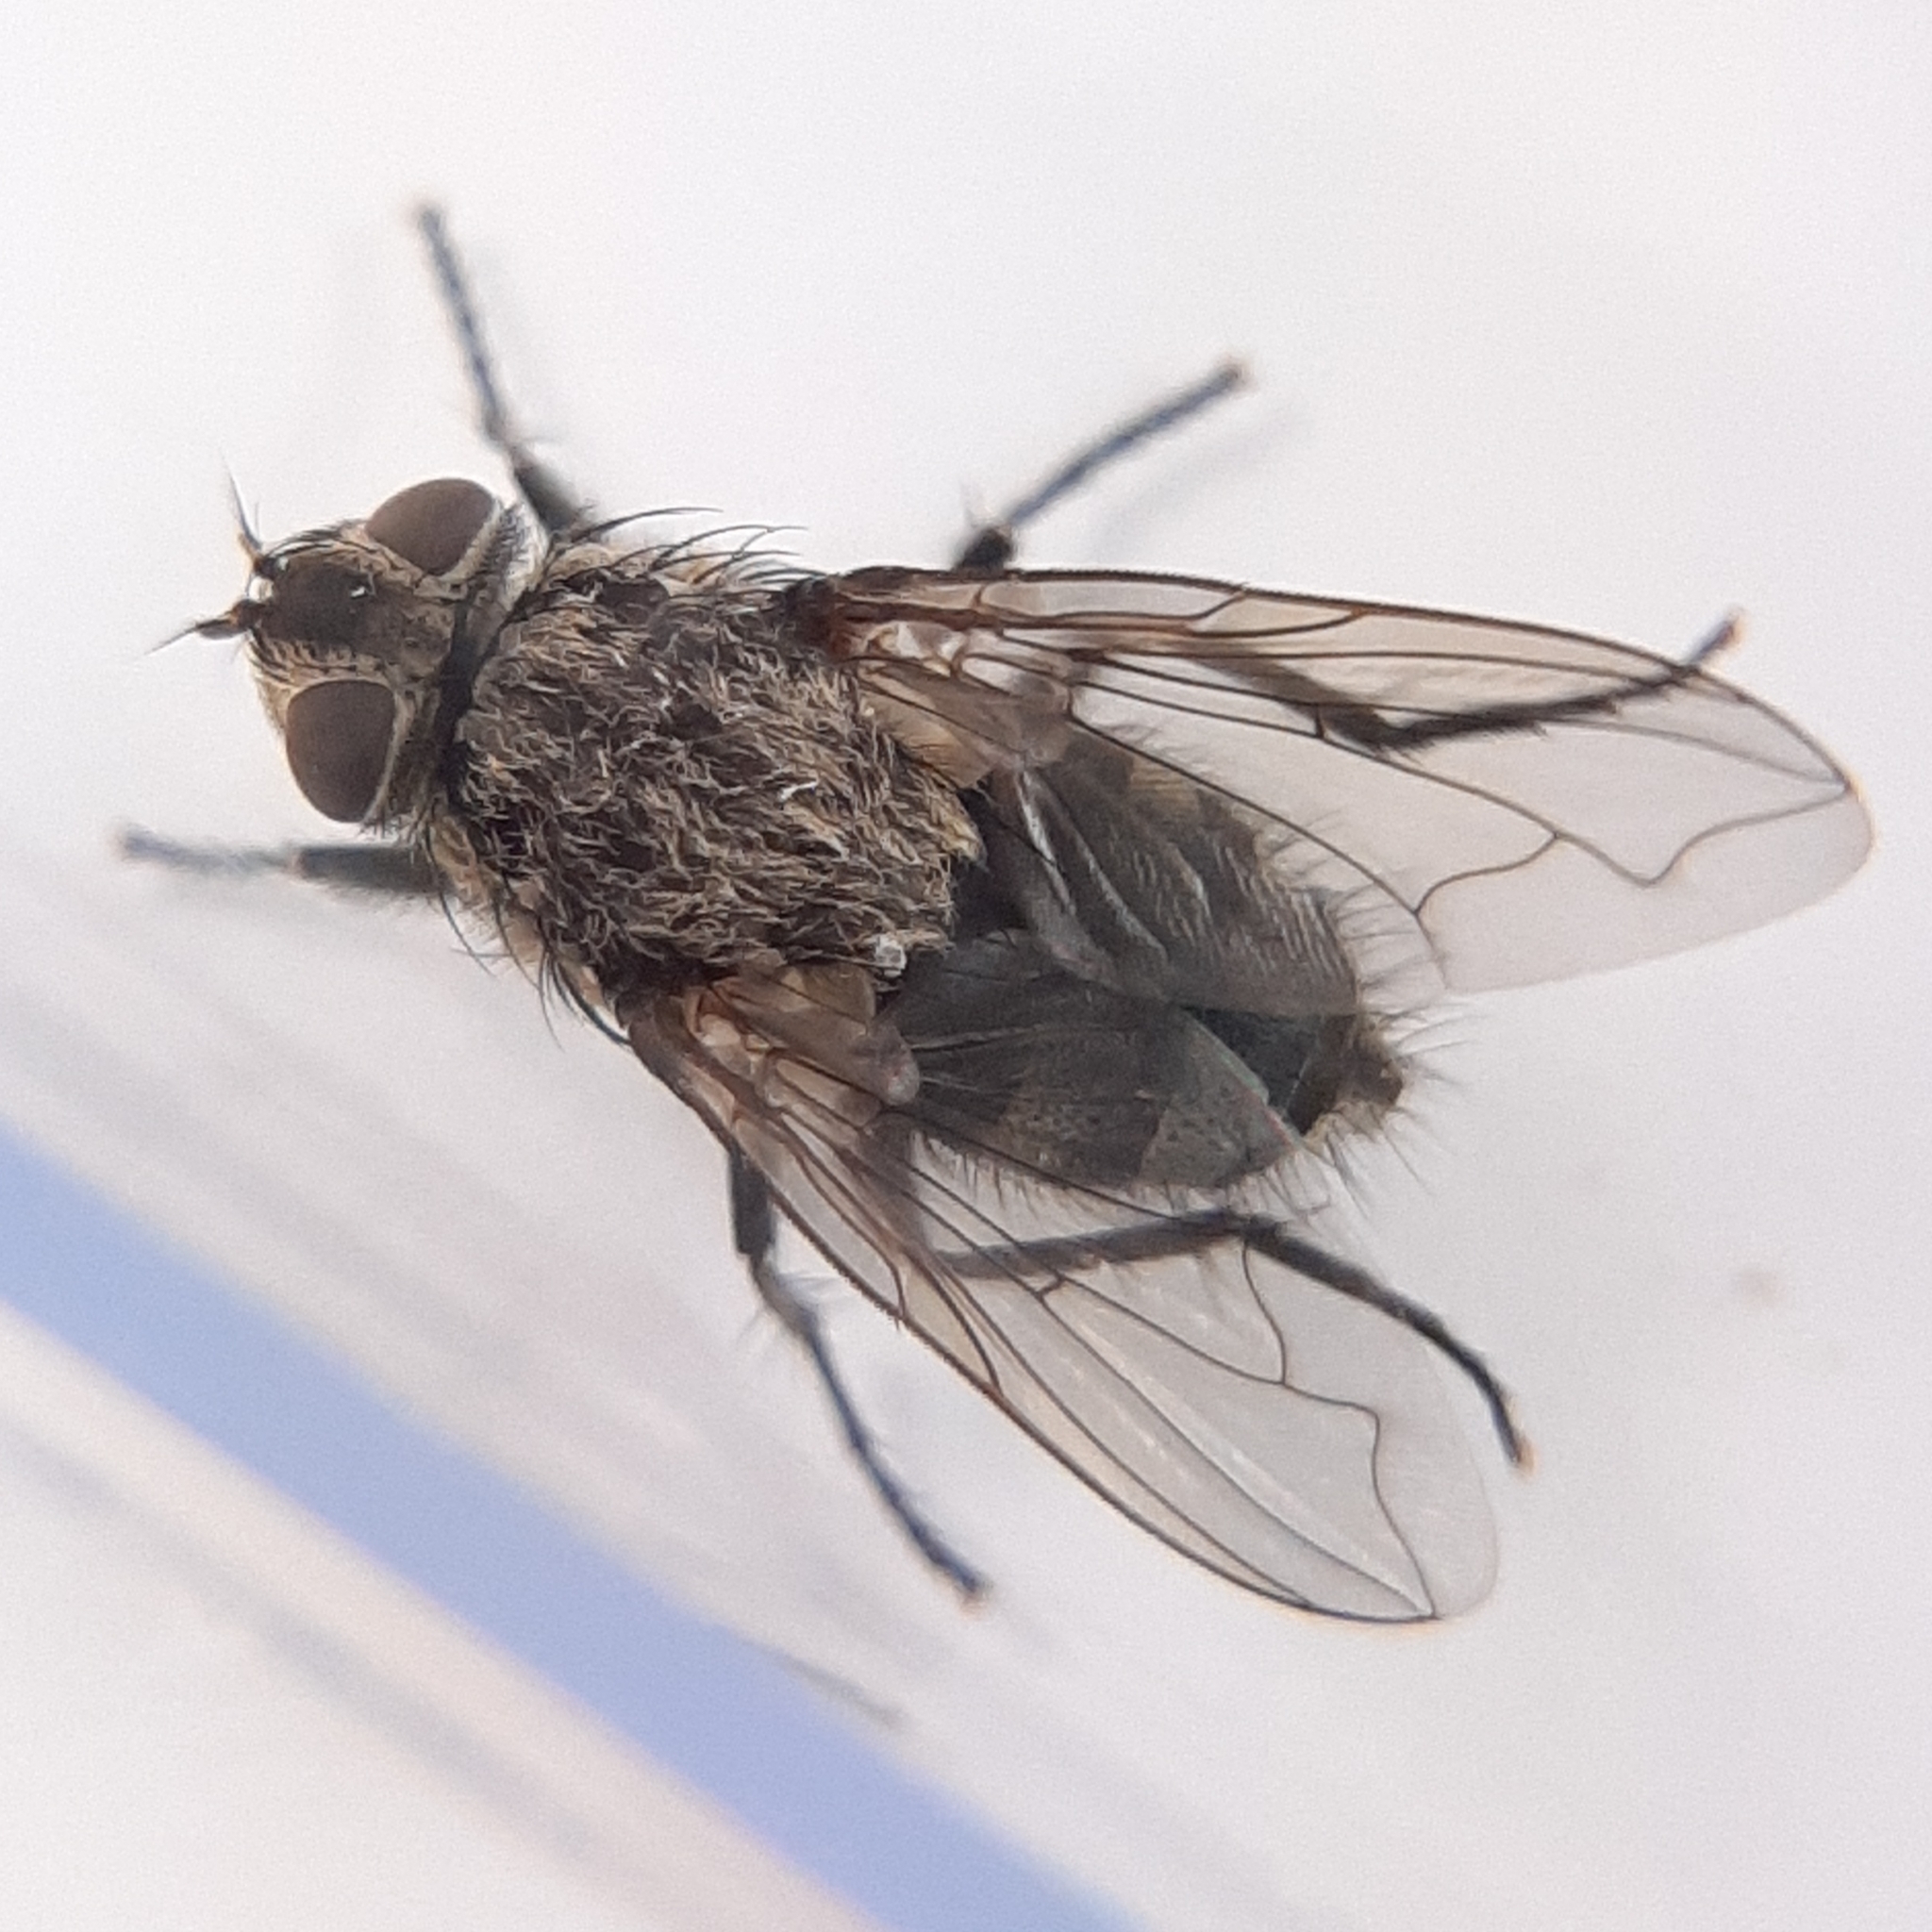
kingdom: Animalia
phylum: Arthropoda
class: Insecta
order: Diptera
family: Polleniidae
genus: Pollenia
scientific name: Pollenia
